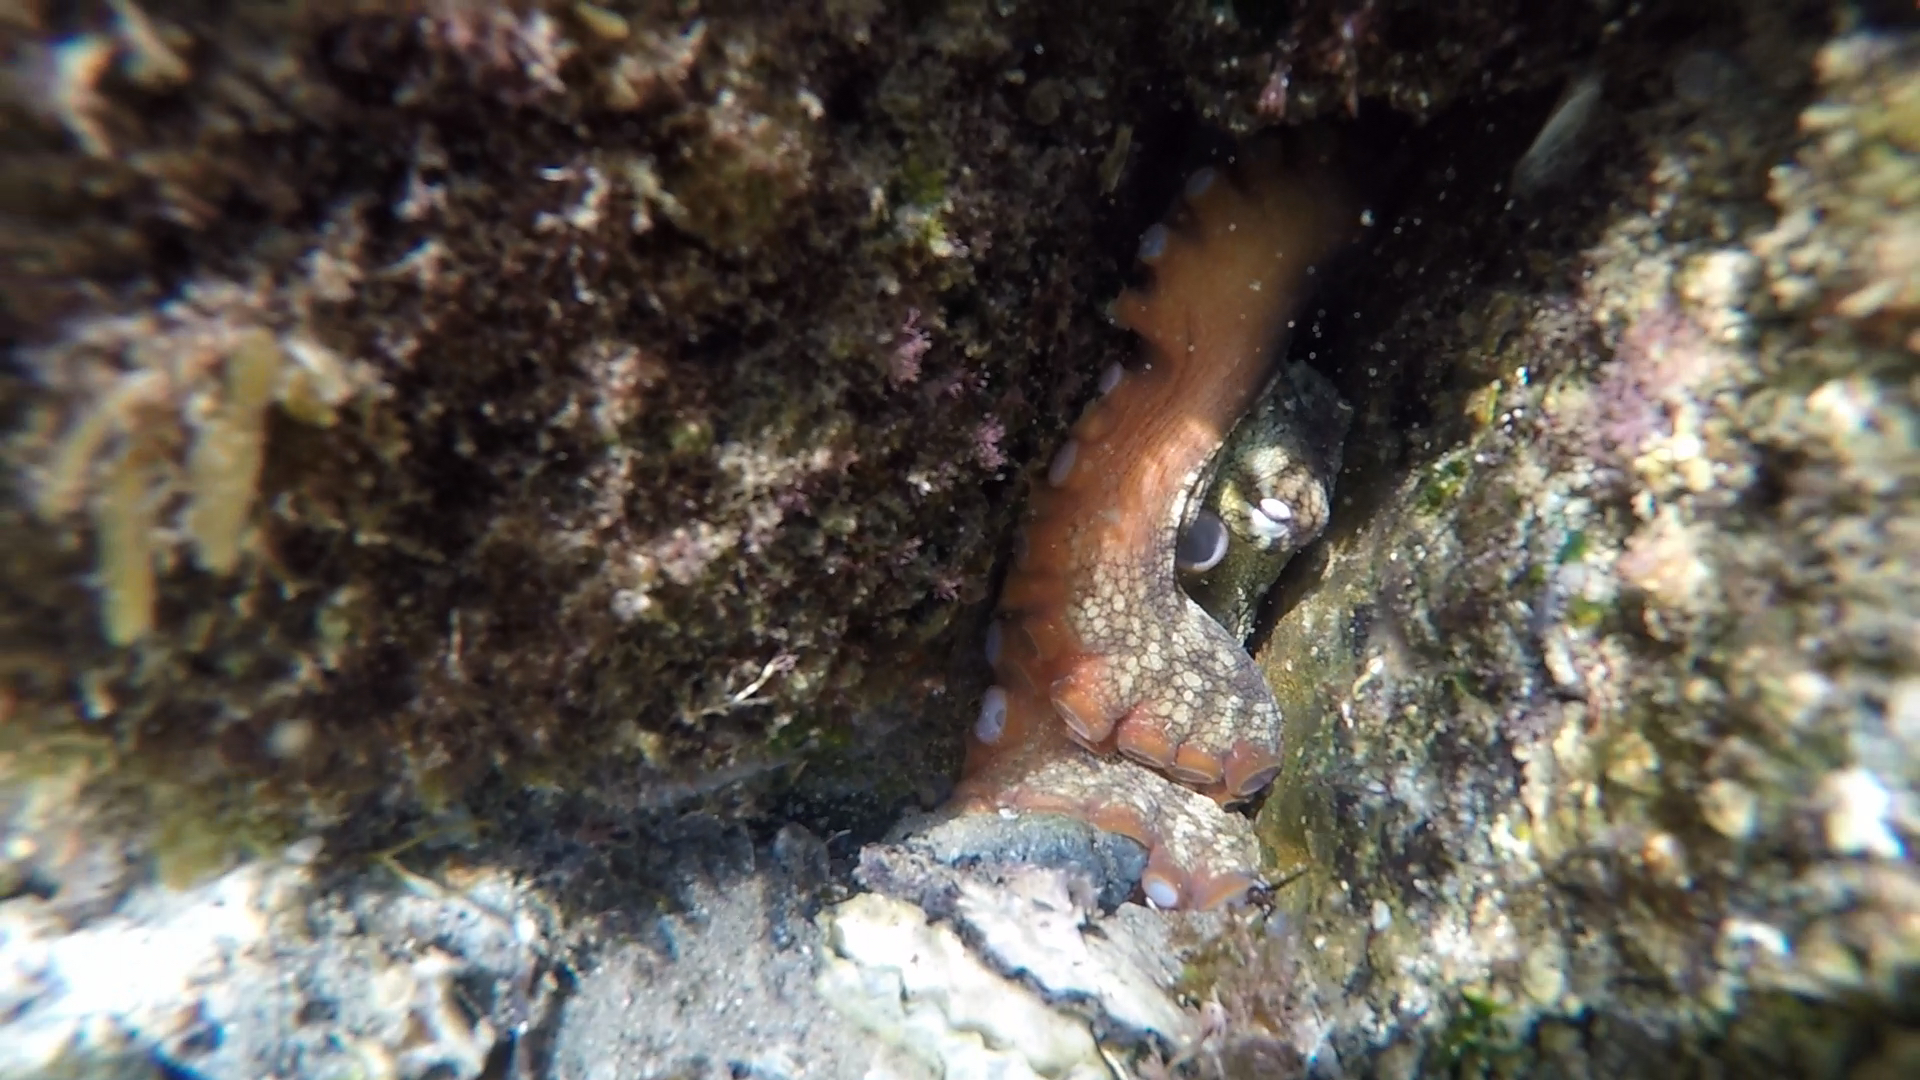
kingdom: Animalia
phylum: Mollusca
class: Cephalopoda
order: Octopoda
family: Octopodidae
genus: Octopus
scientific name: Octopus tetricus
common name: Sydney octopus
